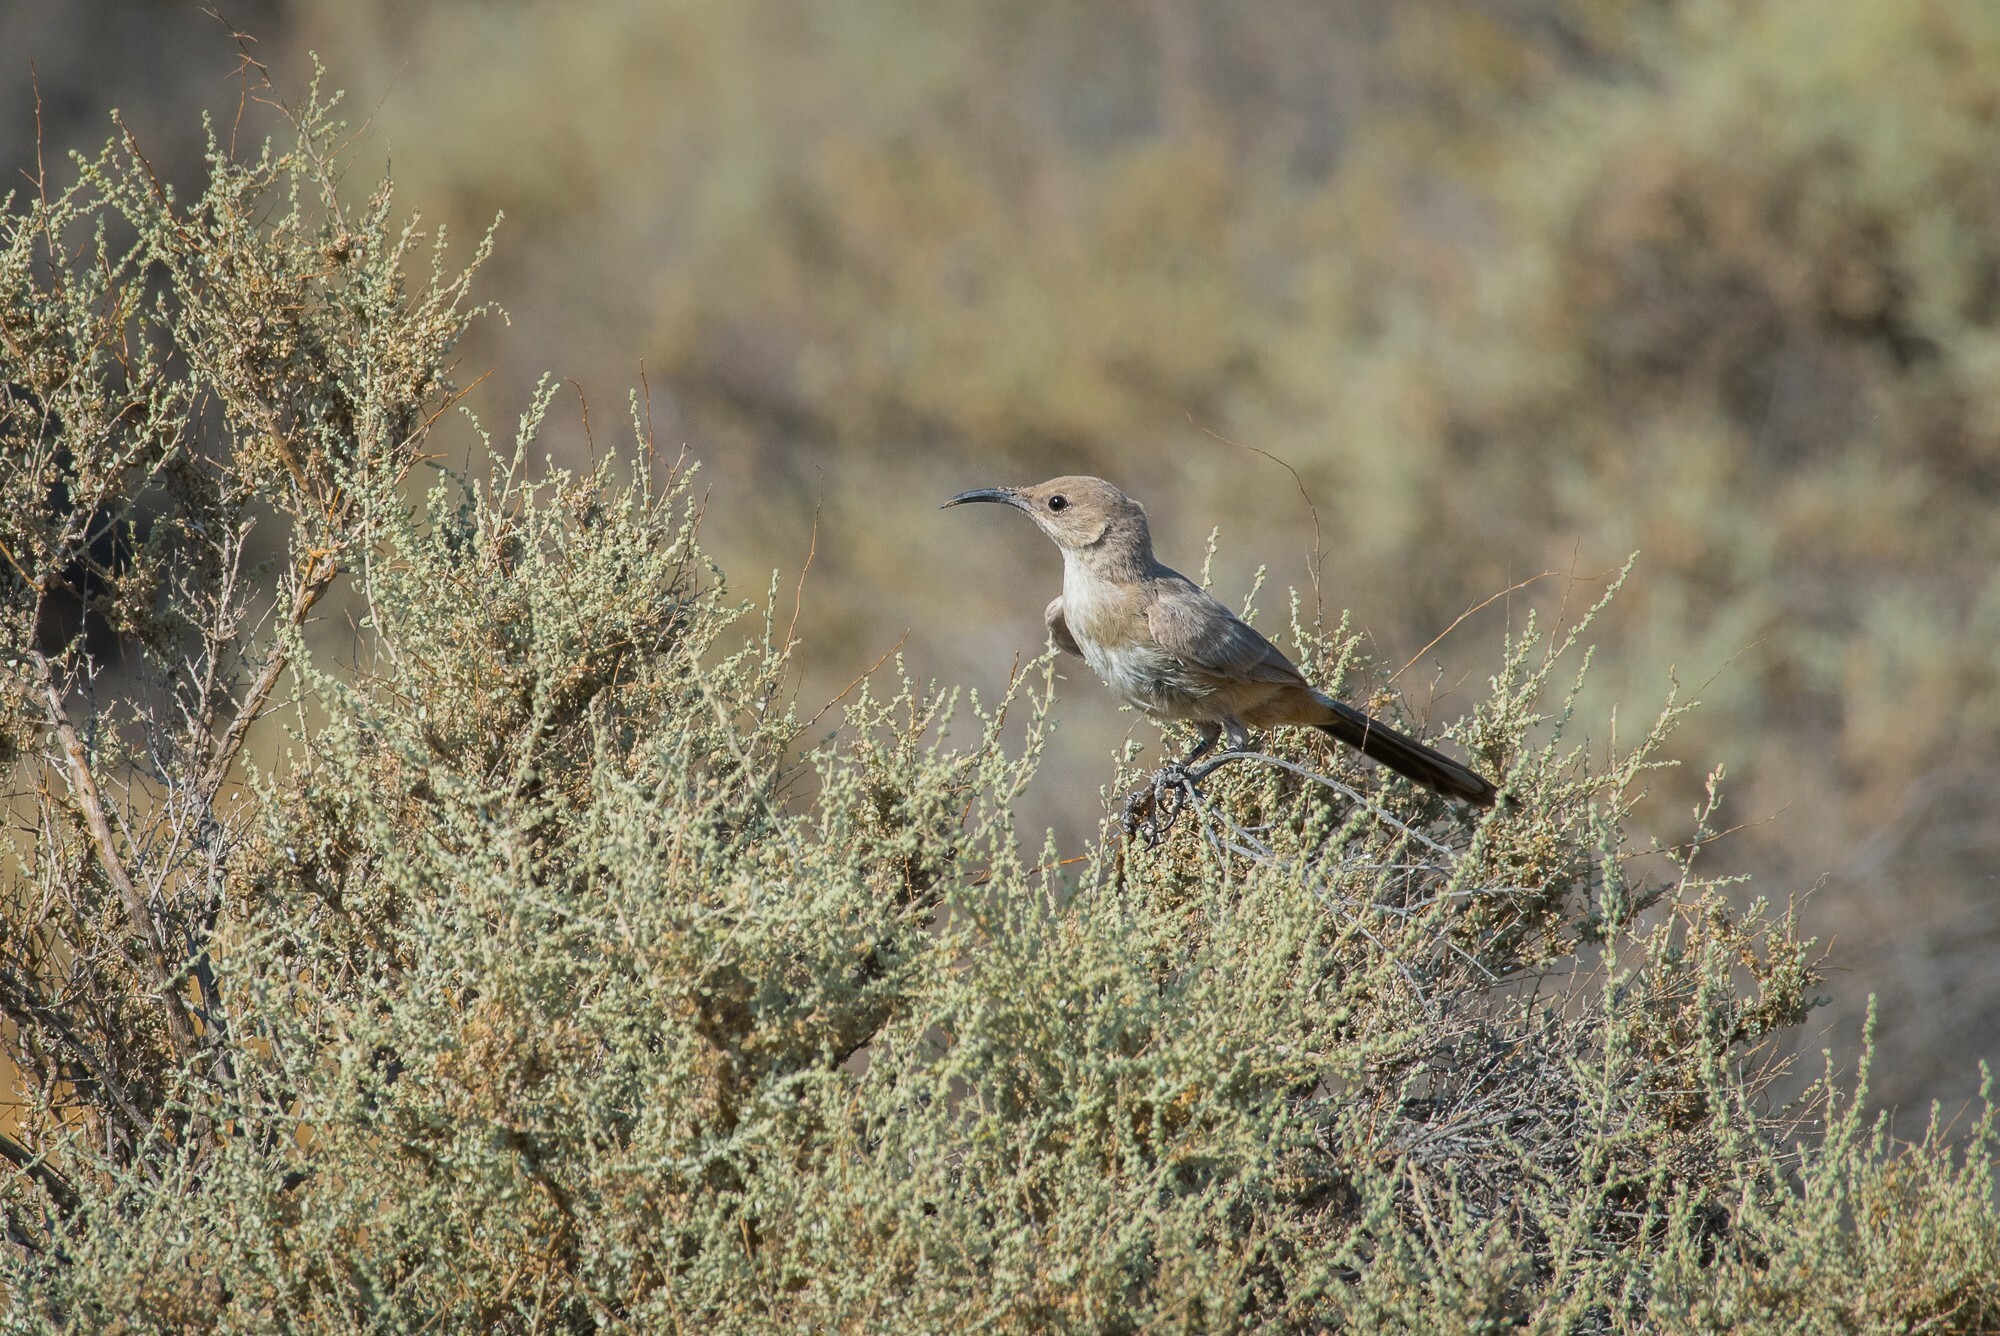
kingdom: Animalia
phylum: Chordata
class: Aves
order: Passeriformes
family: Mimidae
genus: Toxostoma
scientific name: Toxostoma lecontei
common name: Le conte's thrasher
